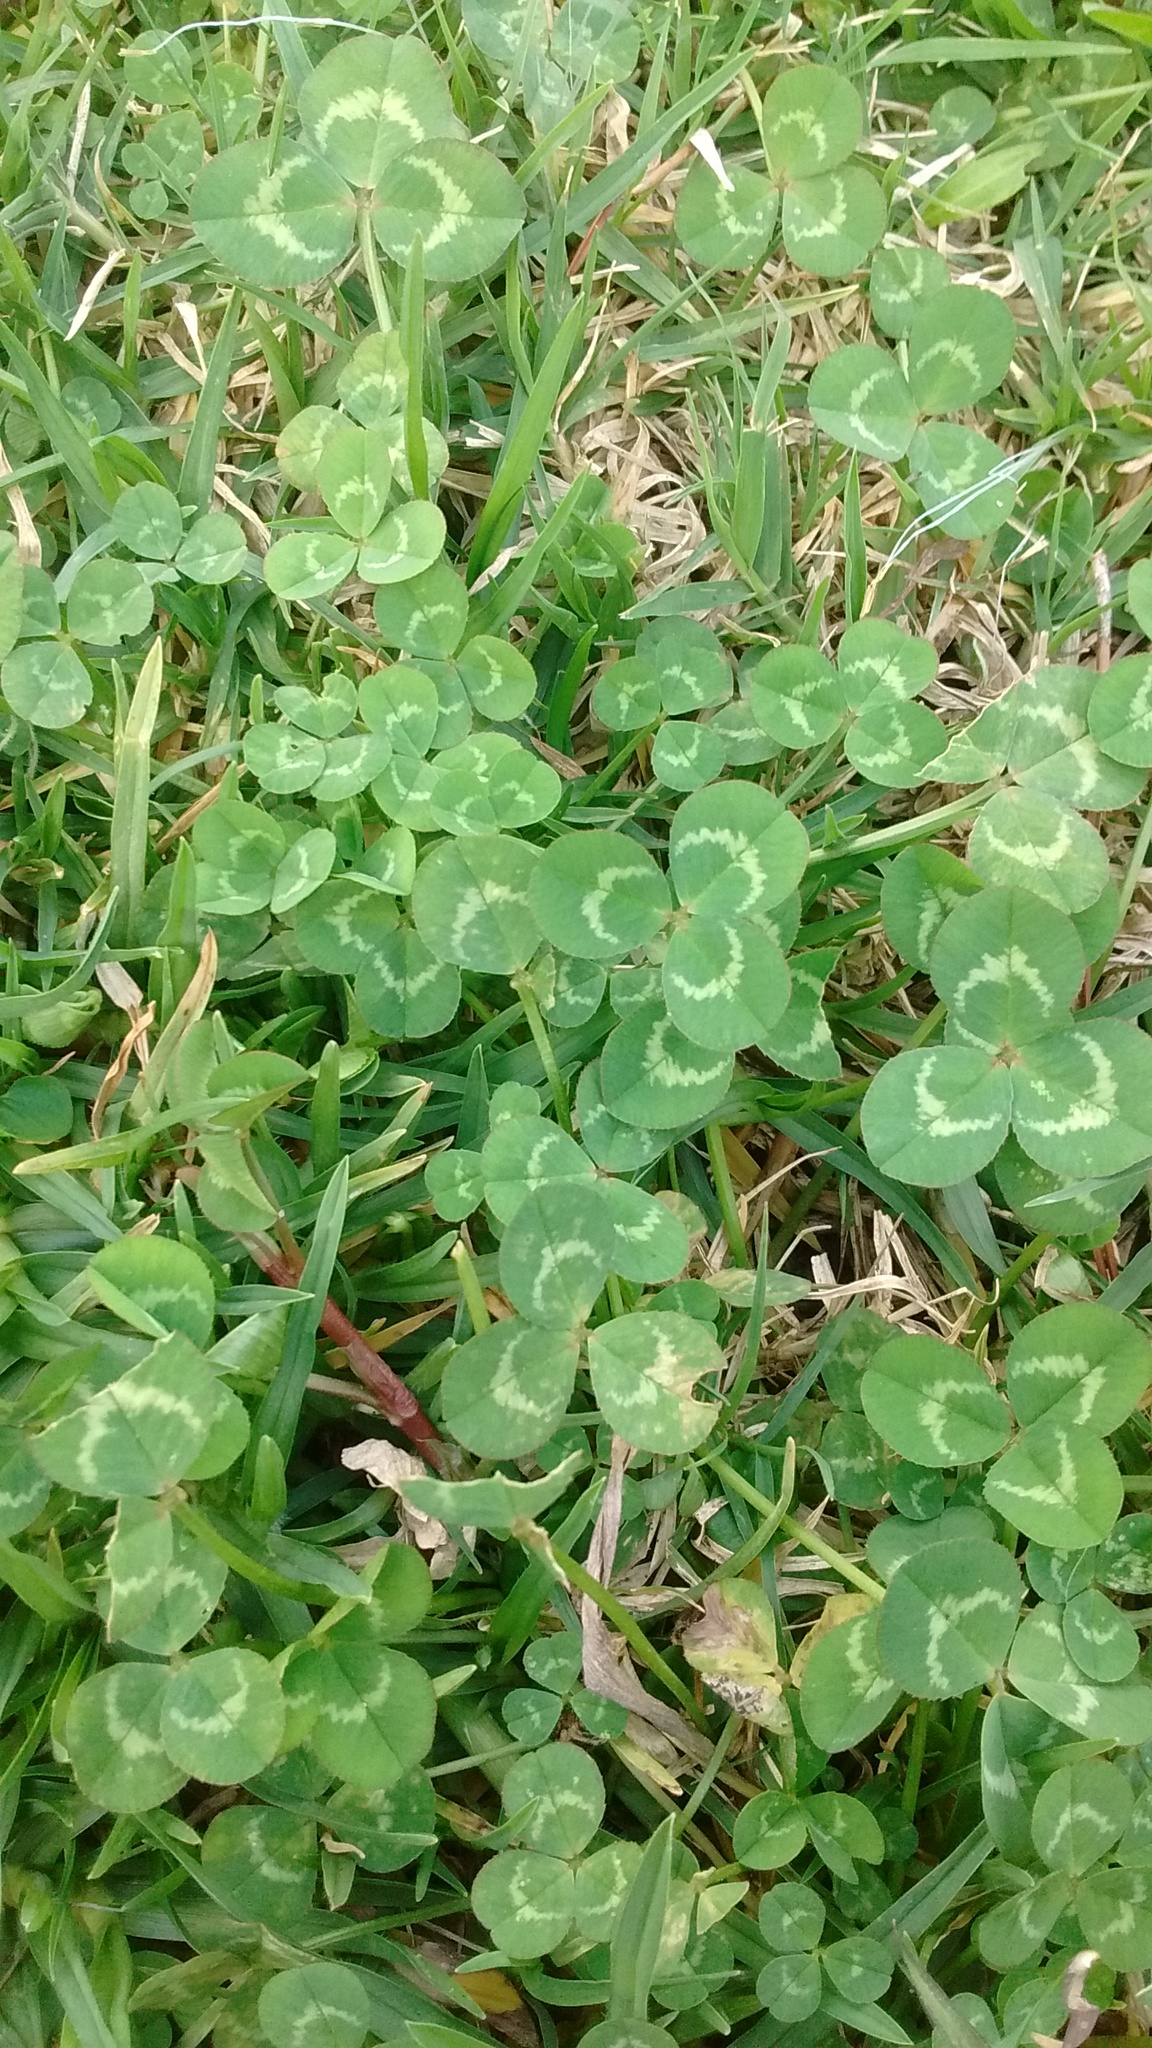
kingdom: Plantae
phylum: Tracheophyta
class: Magnoliopsida
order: Fabales
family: Fabaceae
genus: Trifolium
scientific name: Trifolium repens
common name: White clover
